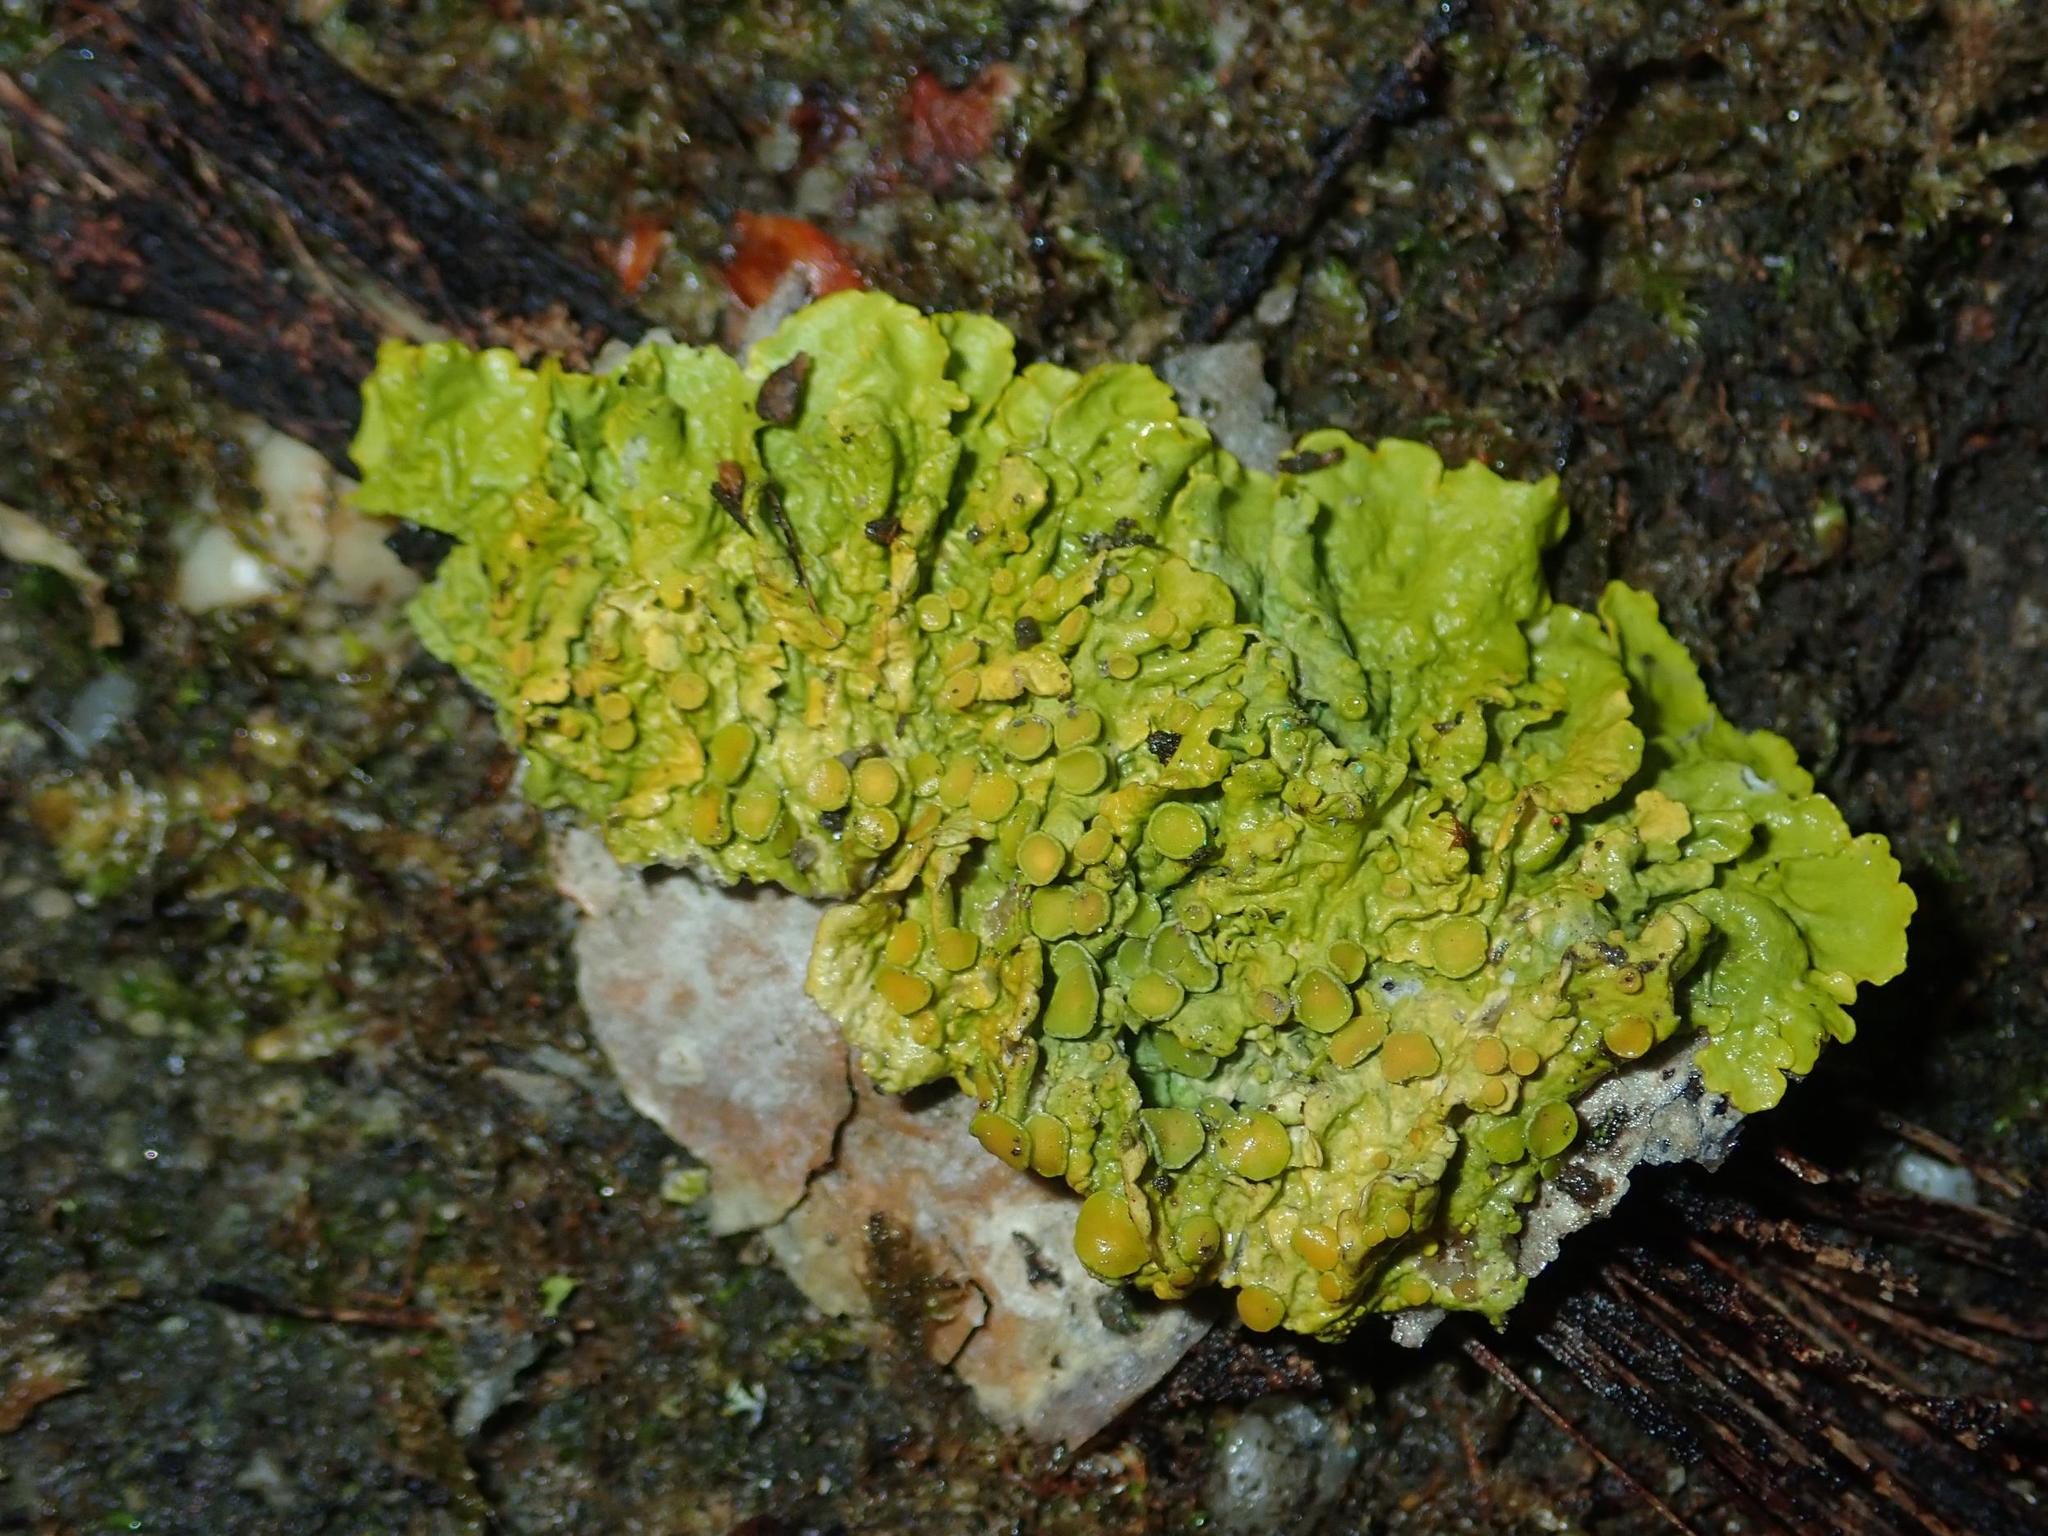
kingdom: Fungi
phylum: Ascomycota
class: Lecanoromycetes
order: Teloschistales
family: Teloschistaceae
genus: Xanthoria
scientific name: Xanthoria parietina
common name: Common orange lichen
